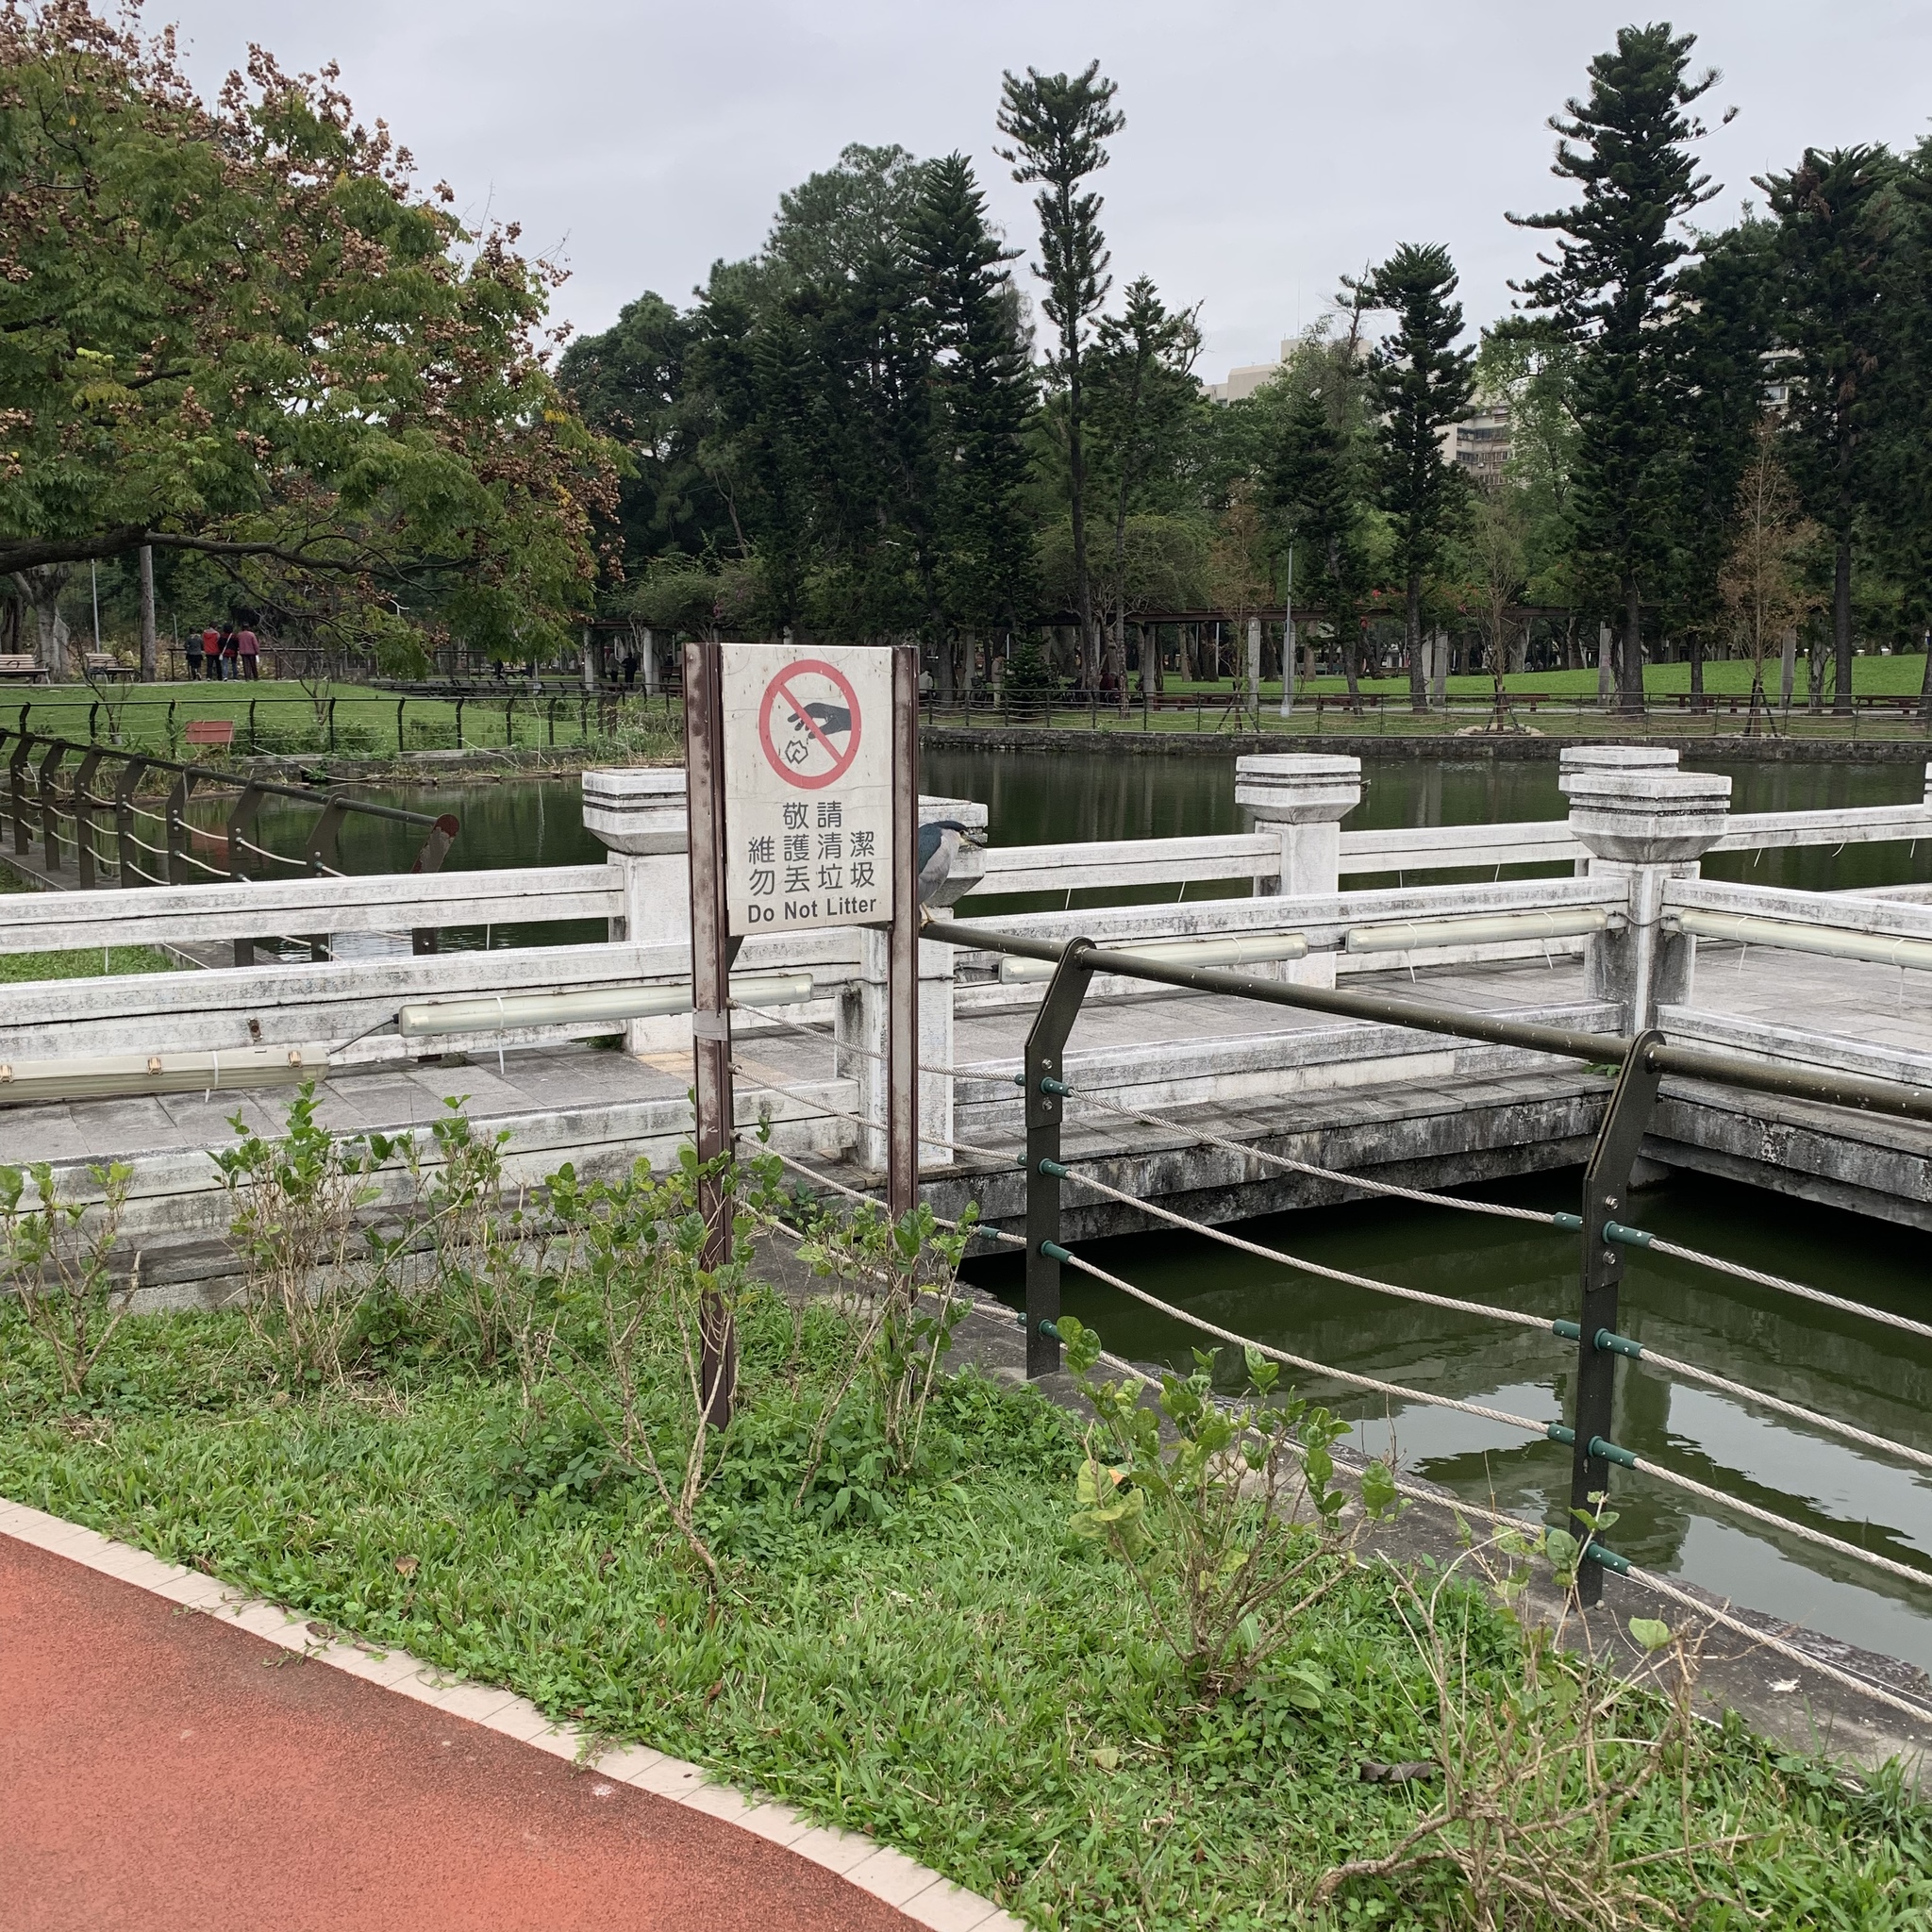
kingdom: Animalia
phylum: Chordata
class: Aves
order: Pelecaniformes
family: Ardeidae
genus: Nycticorax
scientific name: Nycticorax nycticorax
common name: Black-crowned night heron
